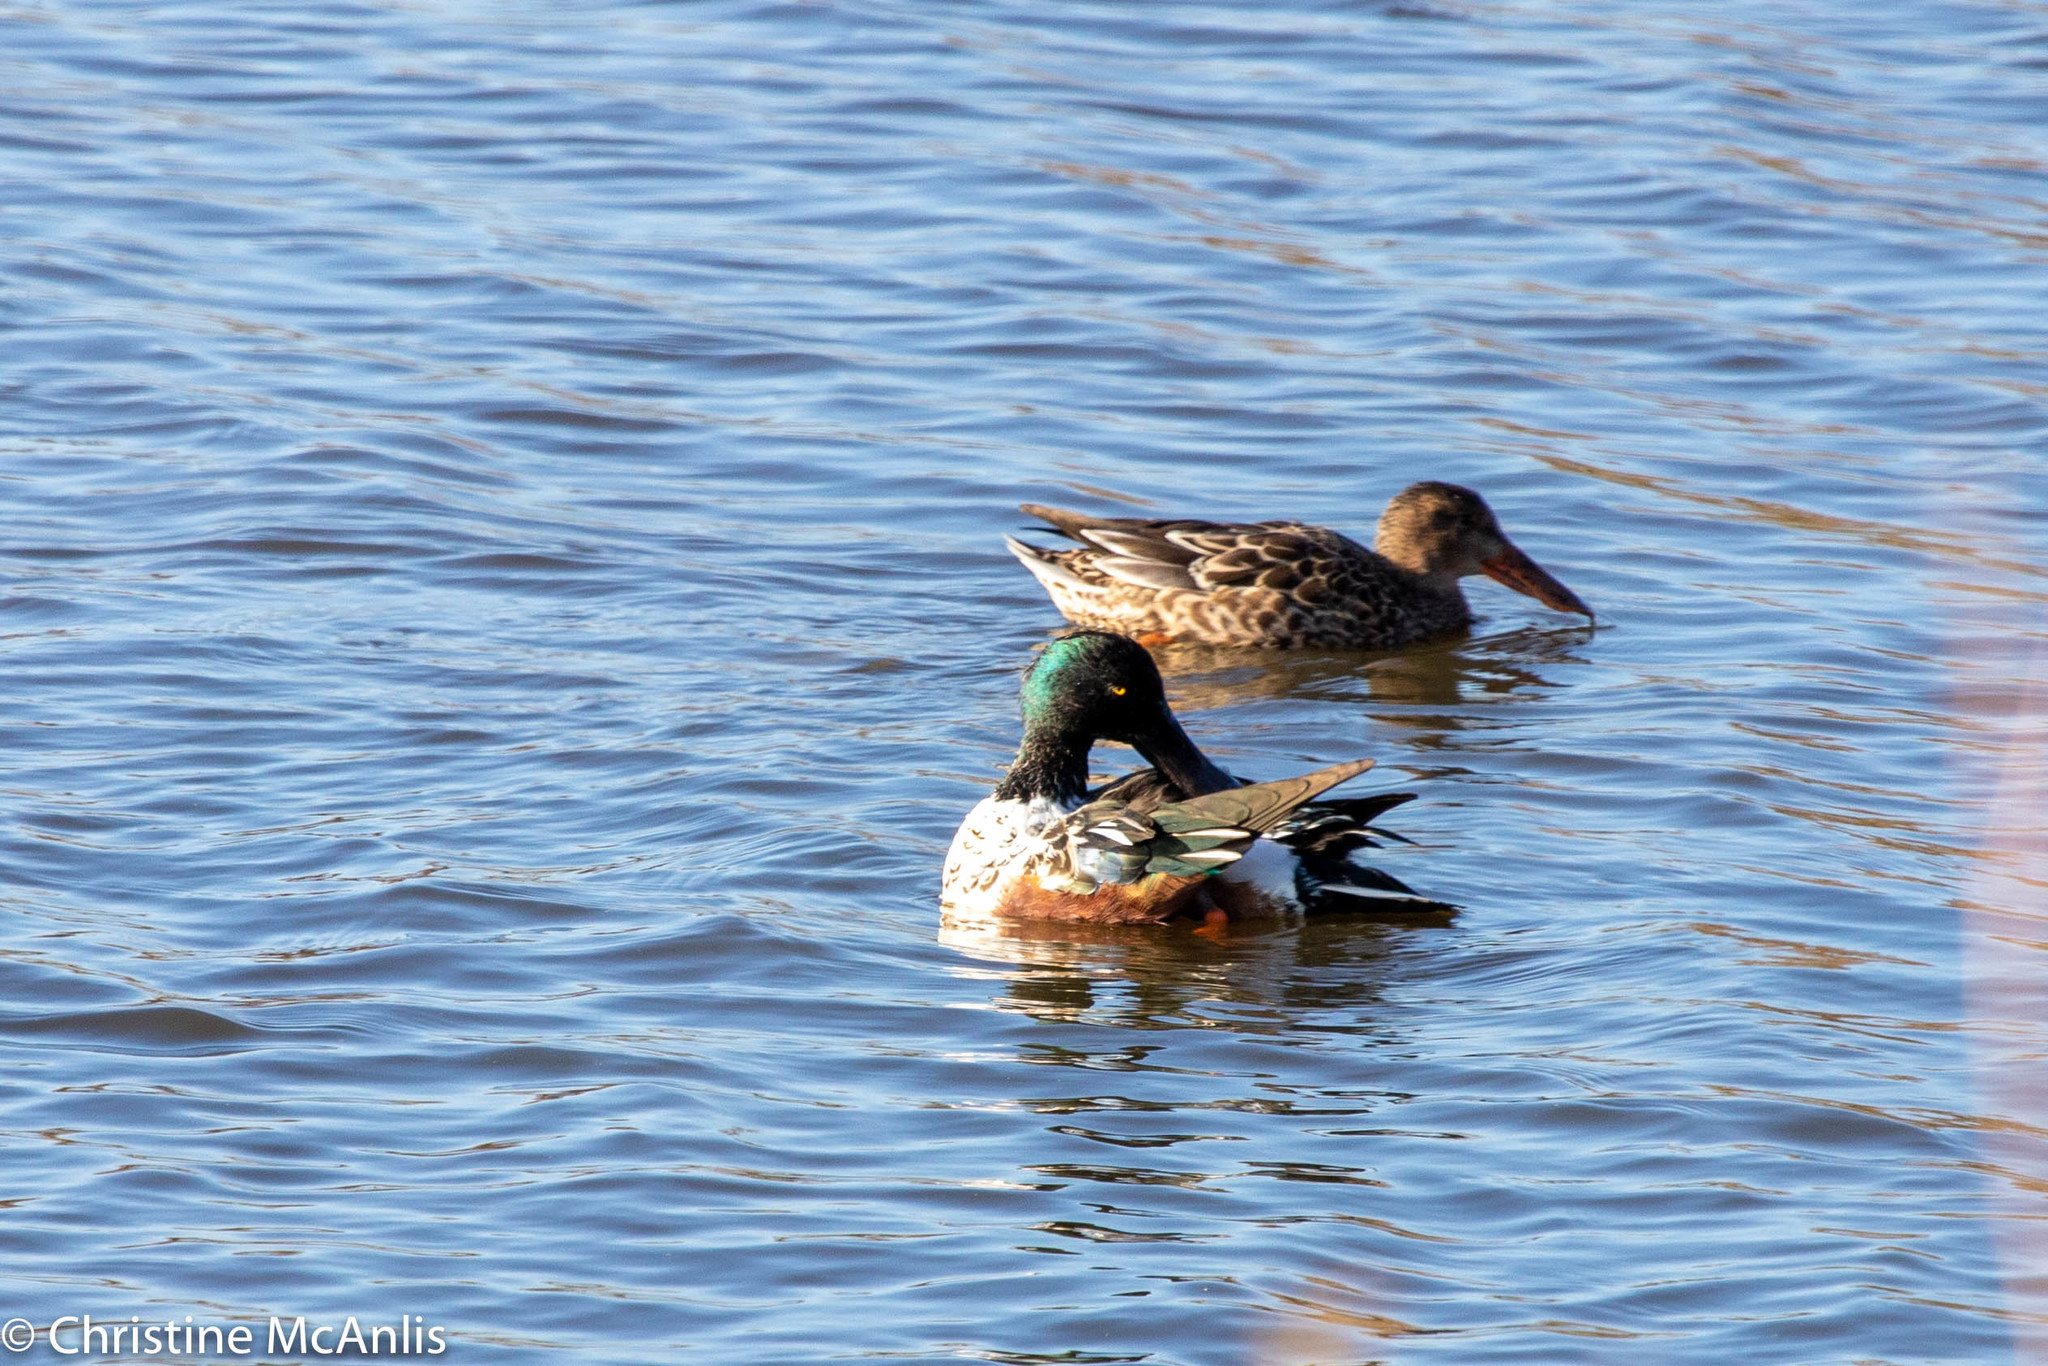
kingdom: Animalia
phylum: Chordata
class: Aves
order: Anseriformes
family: Anatidae
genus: Spatula
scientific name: Spatula clypeata
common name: Northern shoveler
